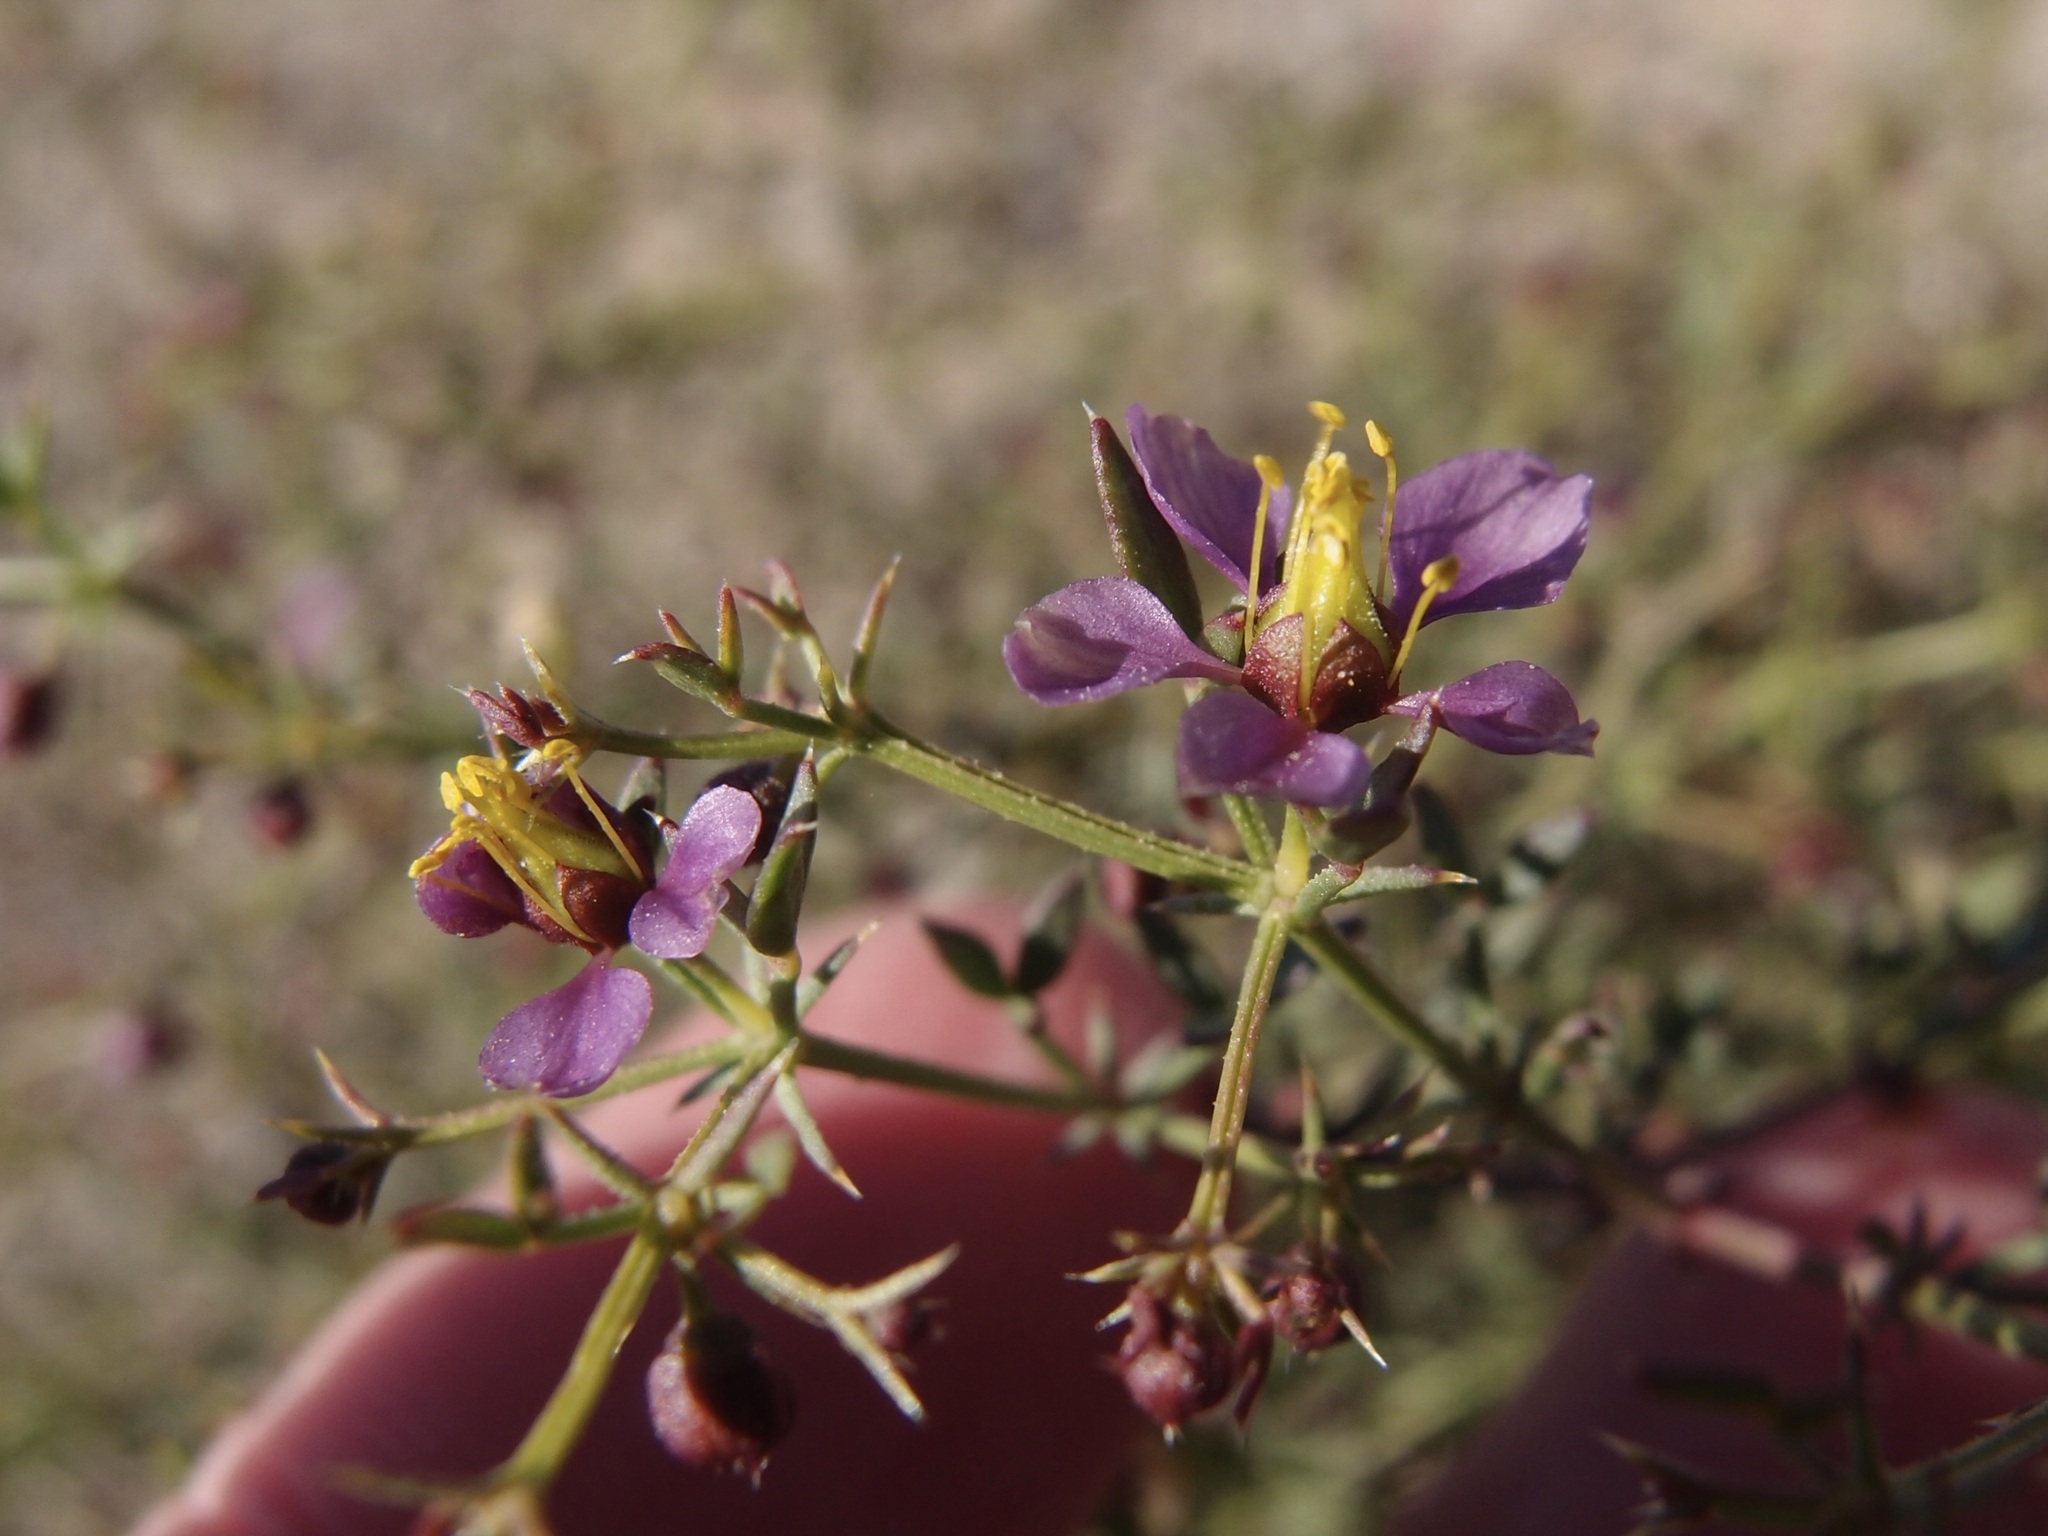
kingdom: Plantae
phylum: Tracheophyta
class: Magnoliopsida
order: Zygophyllales
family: Zygophyllaceae
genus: Fagonia
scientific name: Fagonia laevis
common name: California fagonbush
